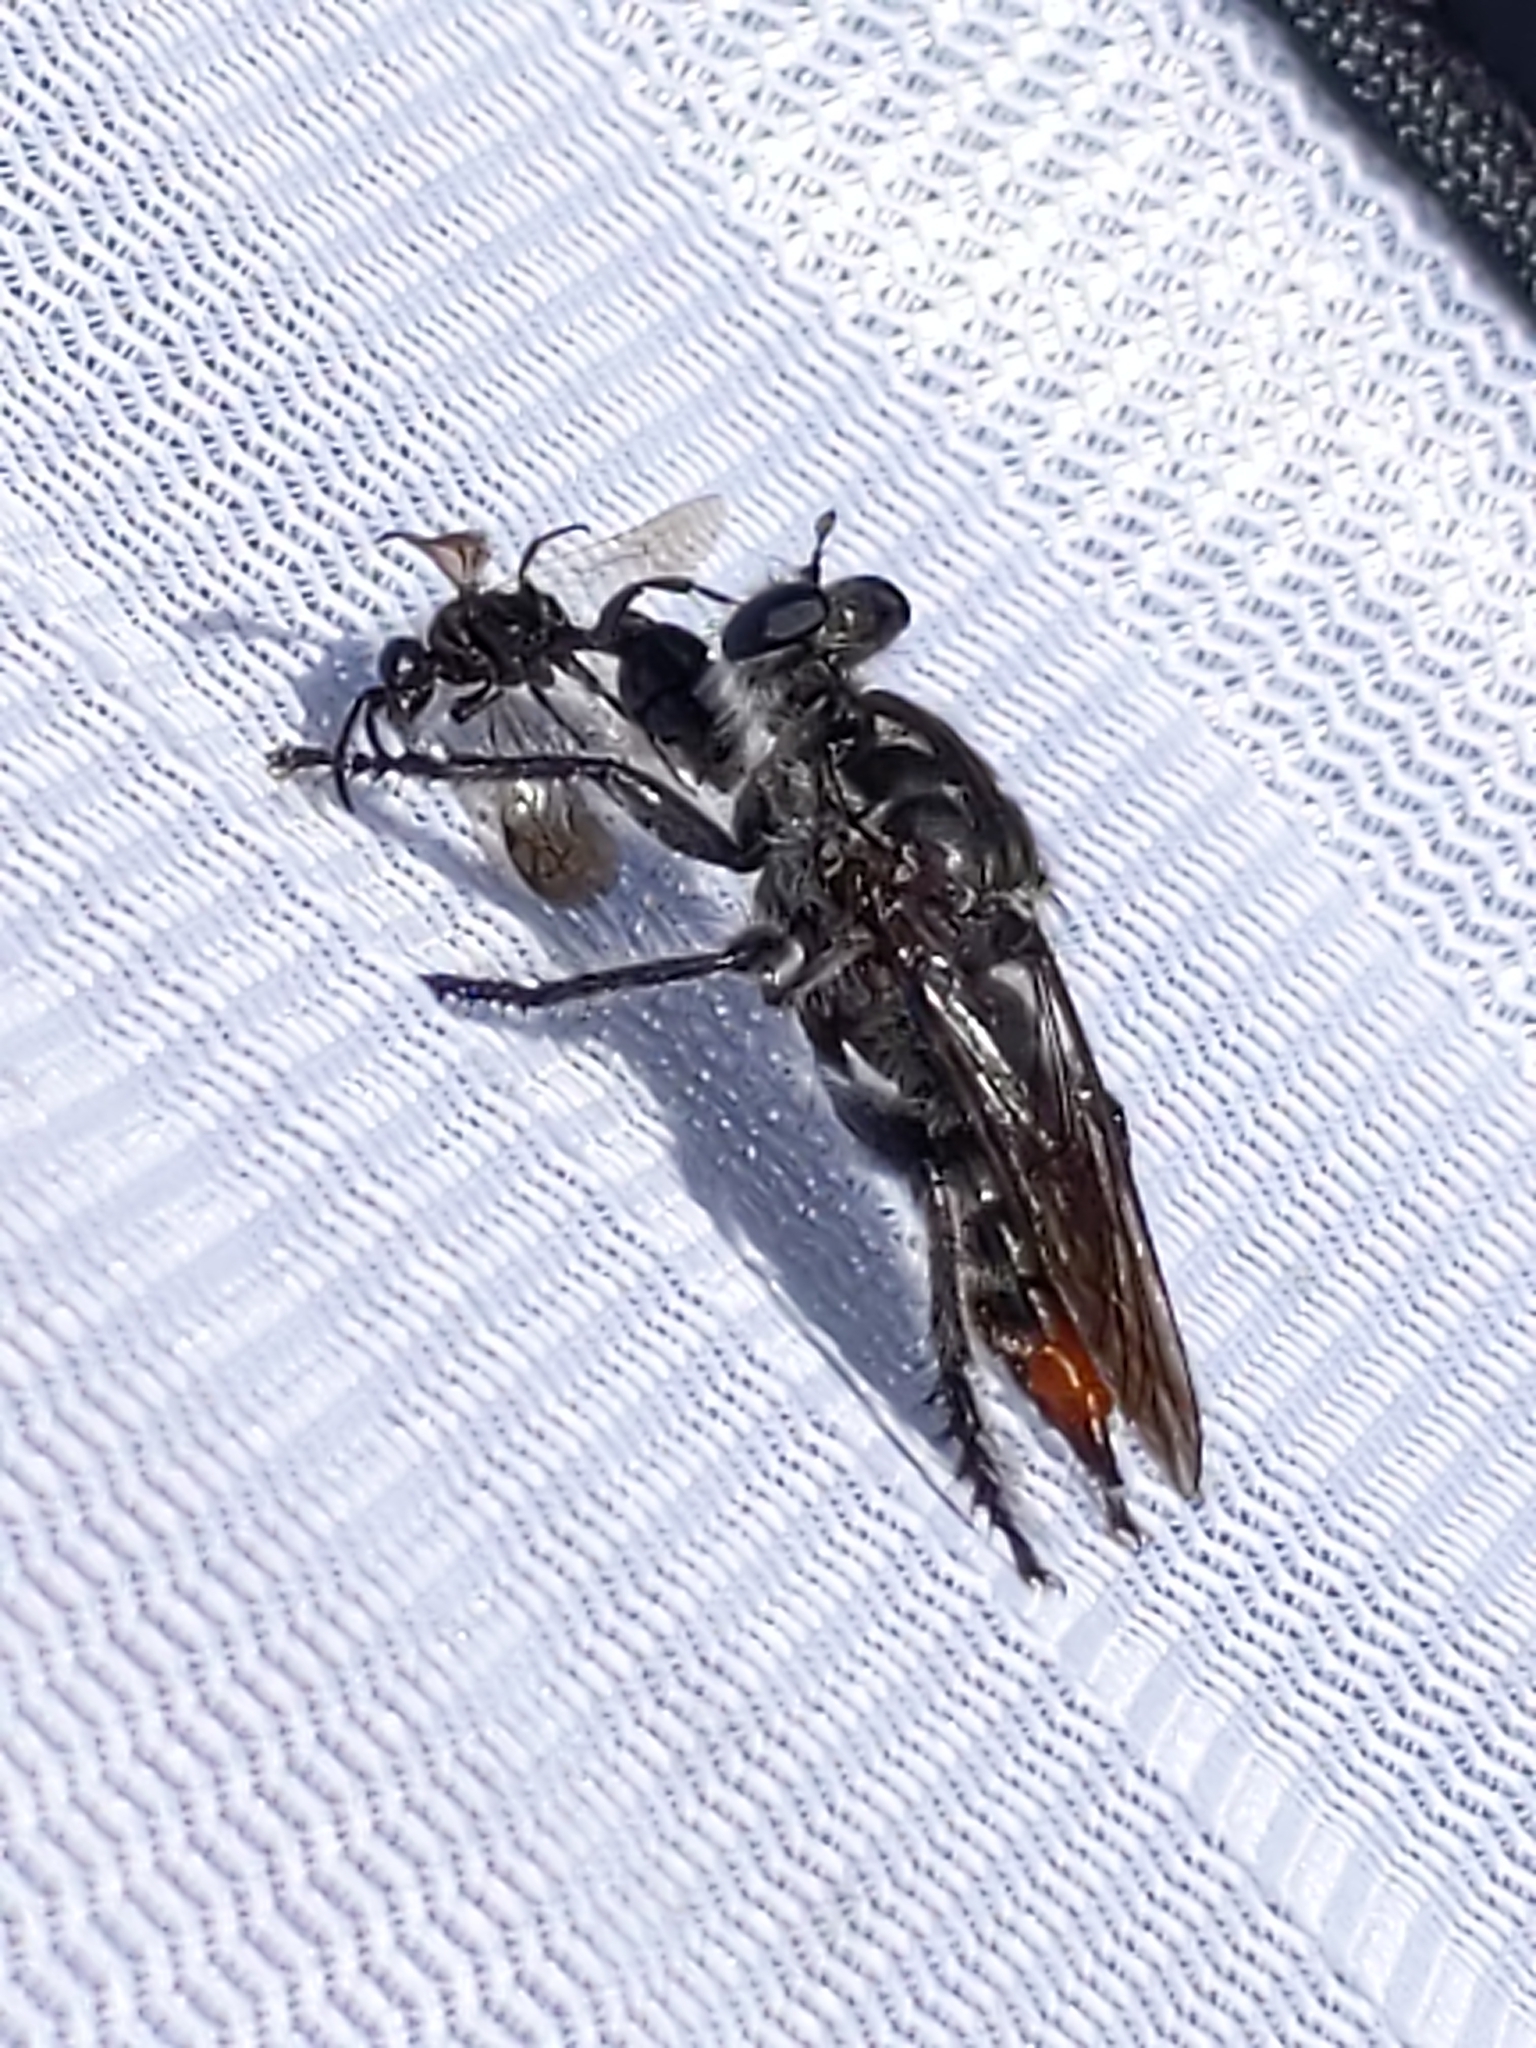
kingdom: Animalia
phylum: Arthropoda
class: Insecta
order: Diptera
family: Asilidae
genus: Andrenosoma
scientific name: Andrenosoma fulvicaudum
